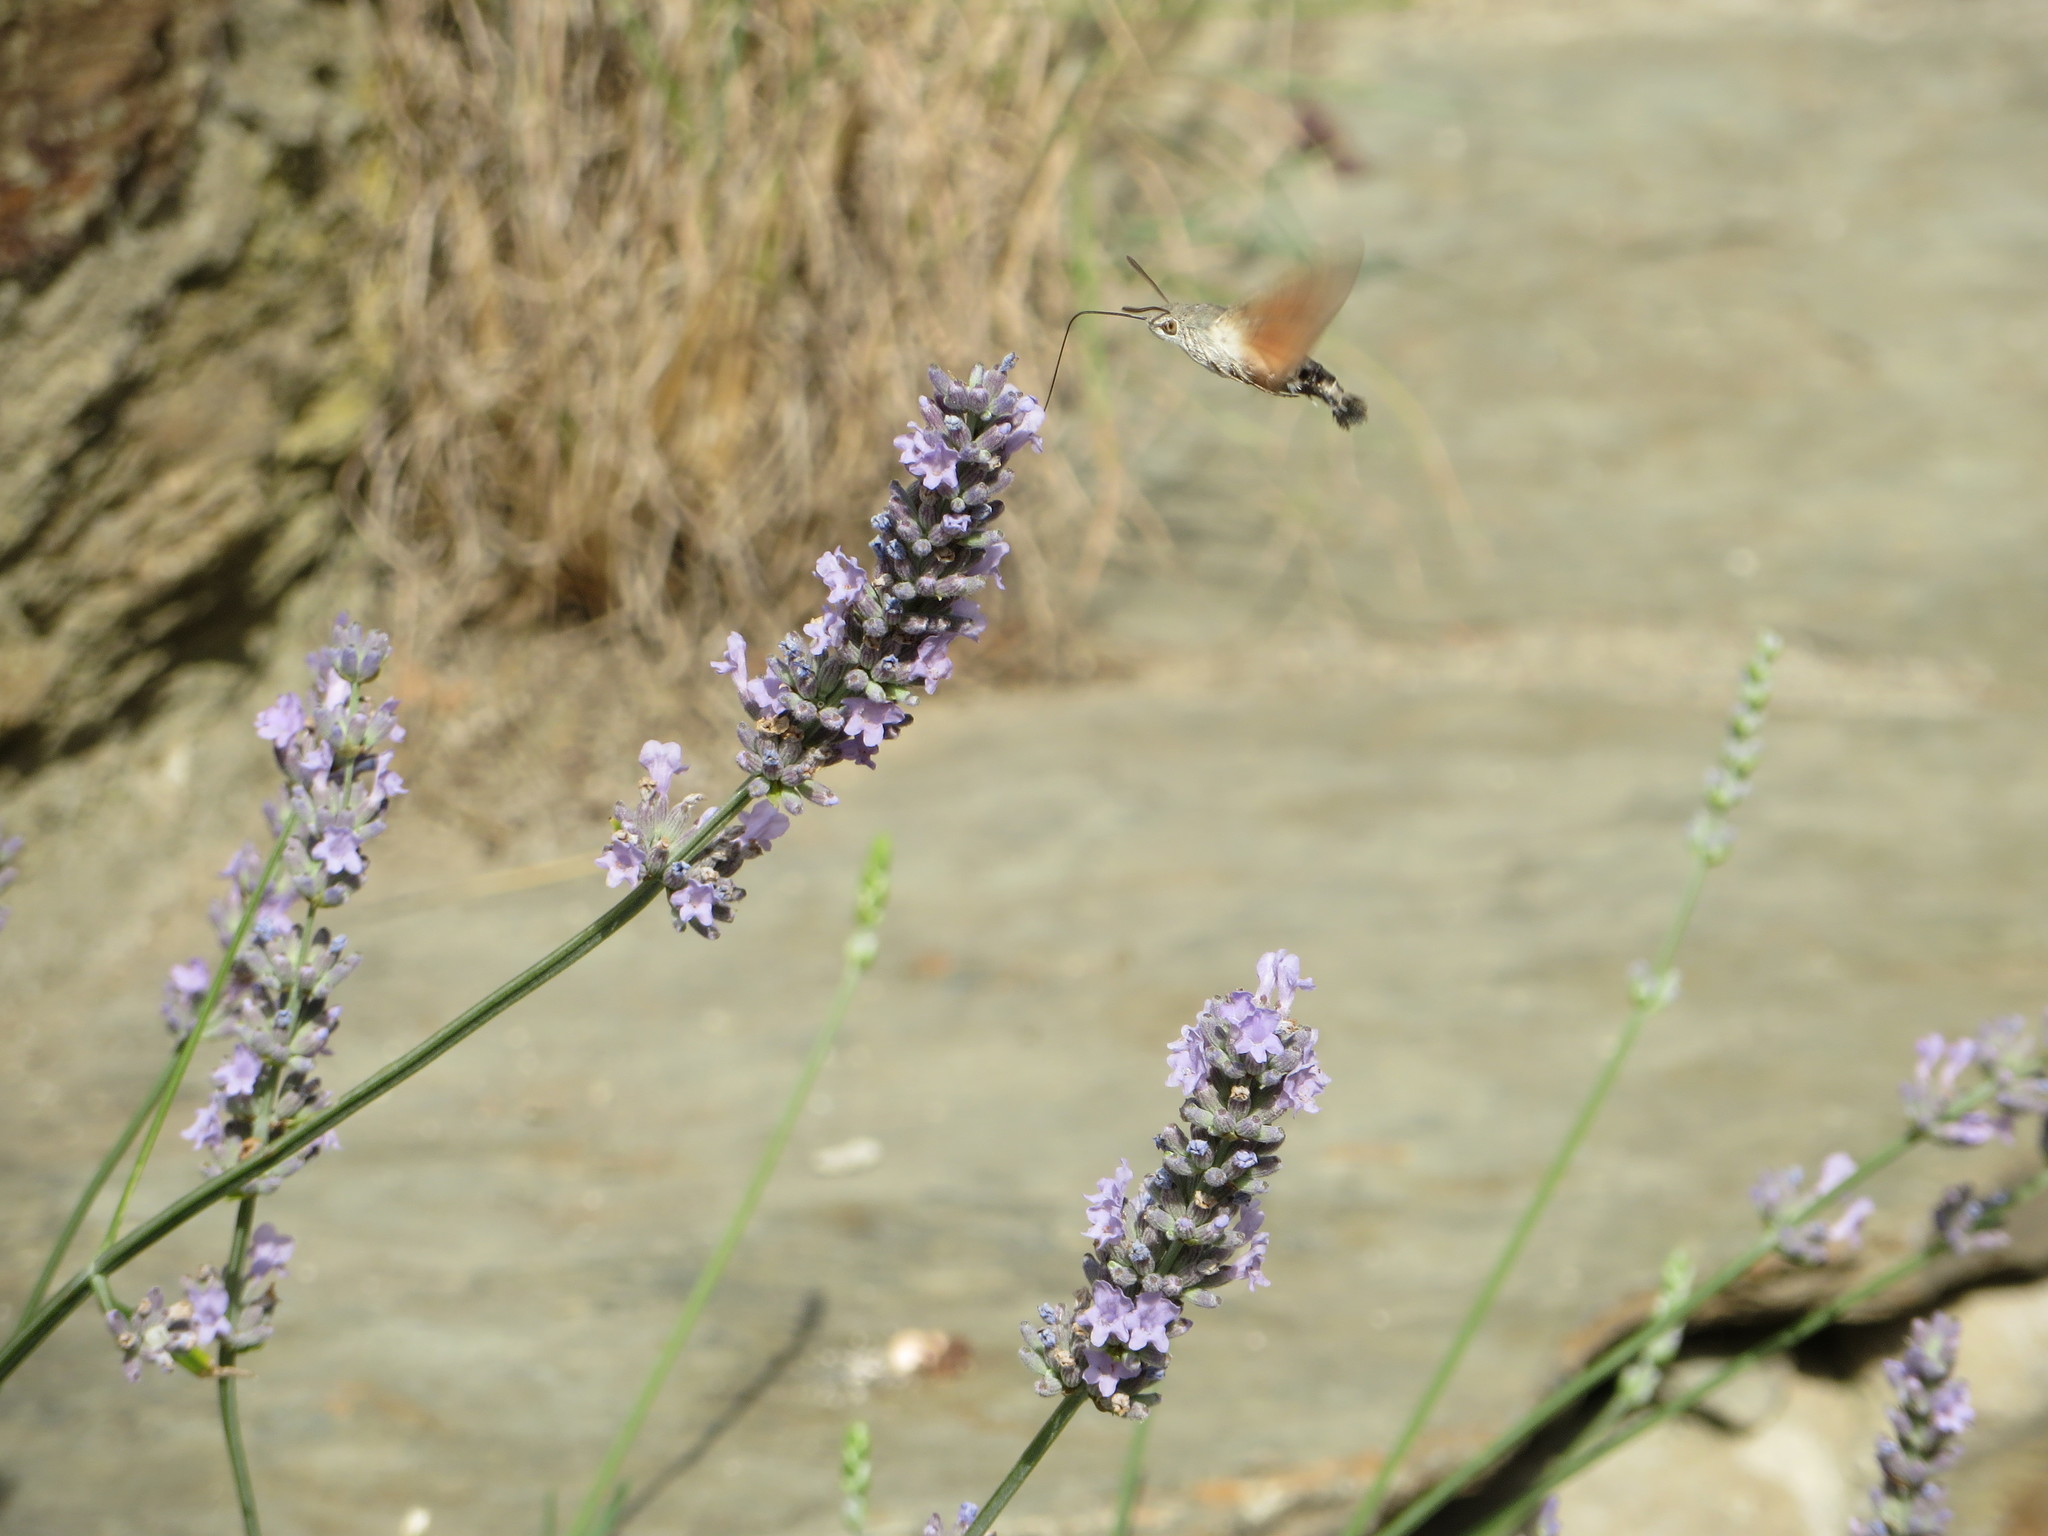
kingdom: Animalia
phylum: Arthropoda
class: Insecta
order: Lepidoptera
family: Sphingidae
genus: Macroglossum
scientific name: Macroglossum stellatarum
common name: Humming-bird hawk-moth
